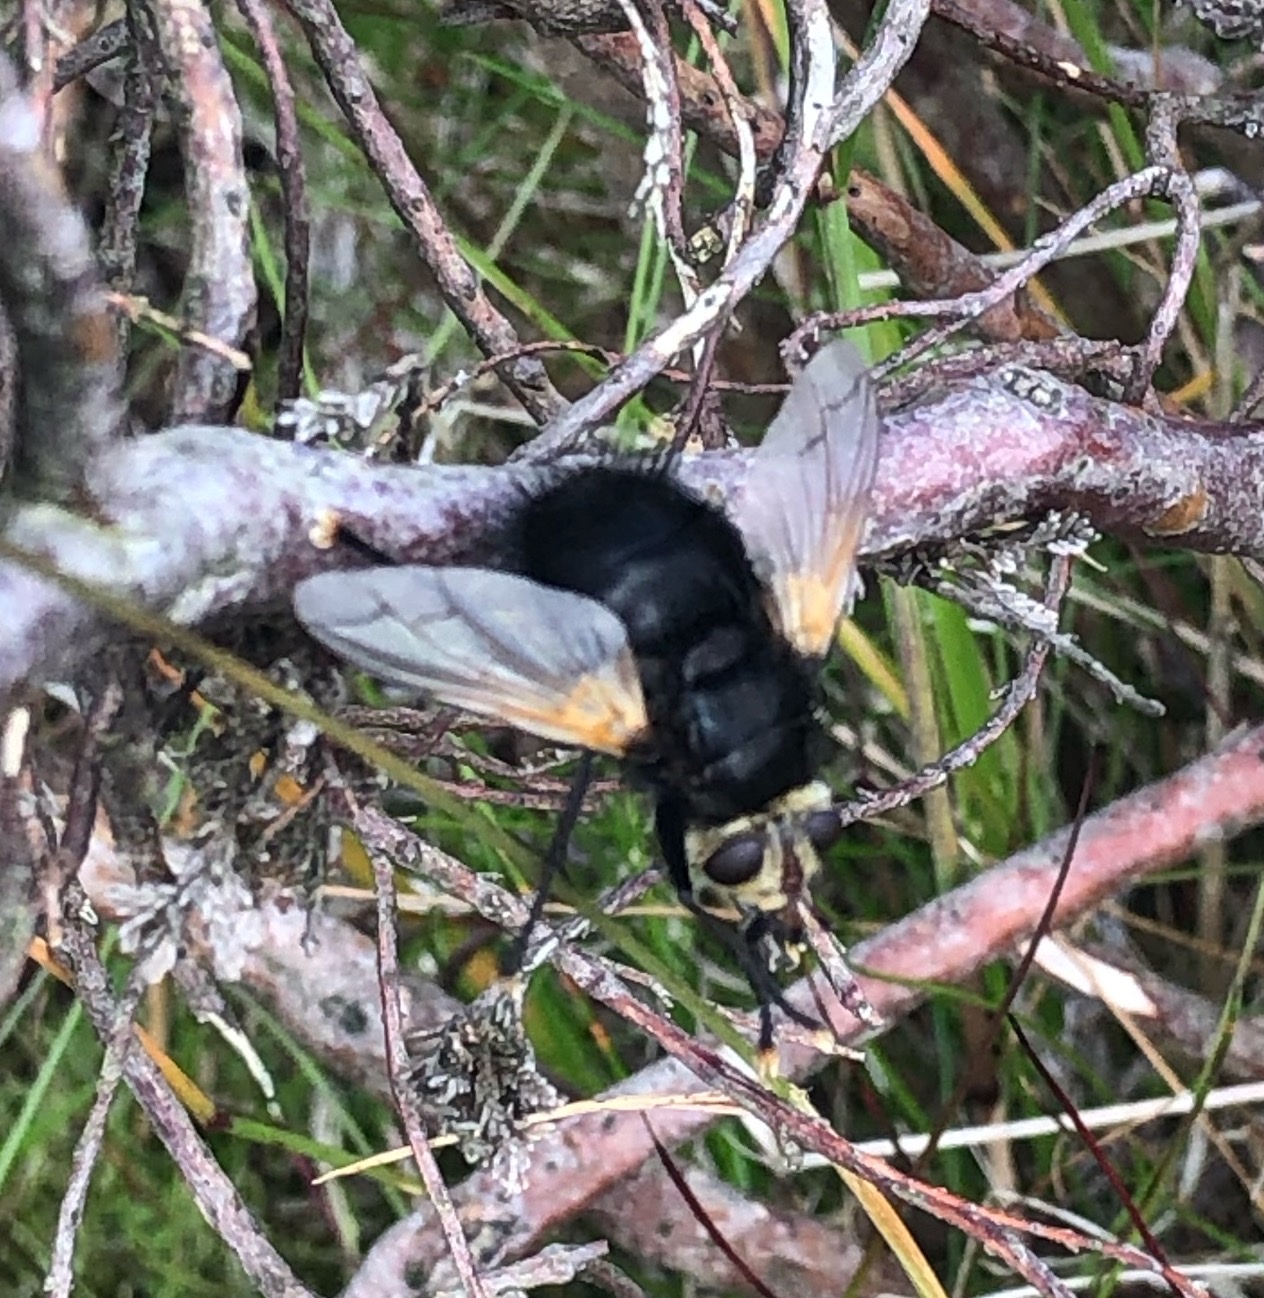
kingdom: Animalia
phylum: Arthropoda
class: Insecta
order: Diptera
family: Tachinidae
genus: Tachina
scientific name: Tachina grossa
